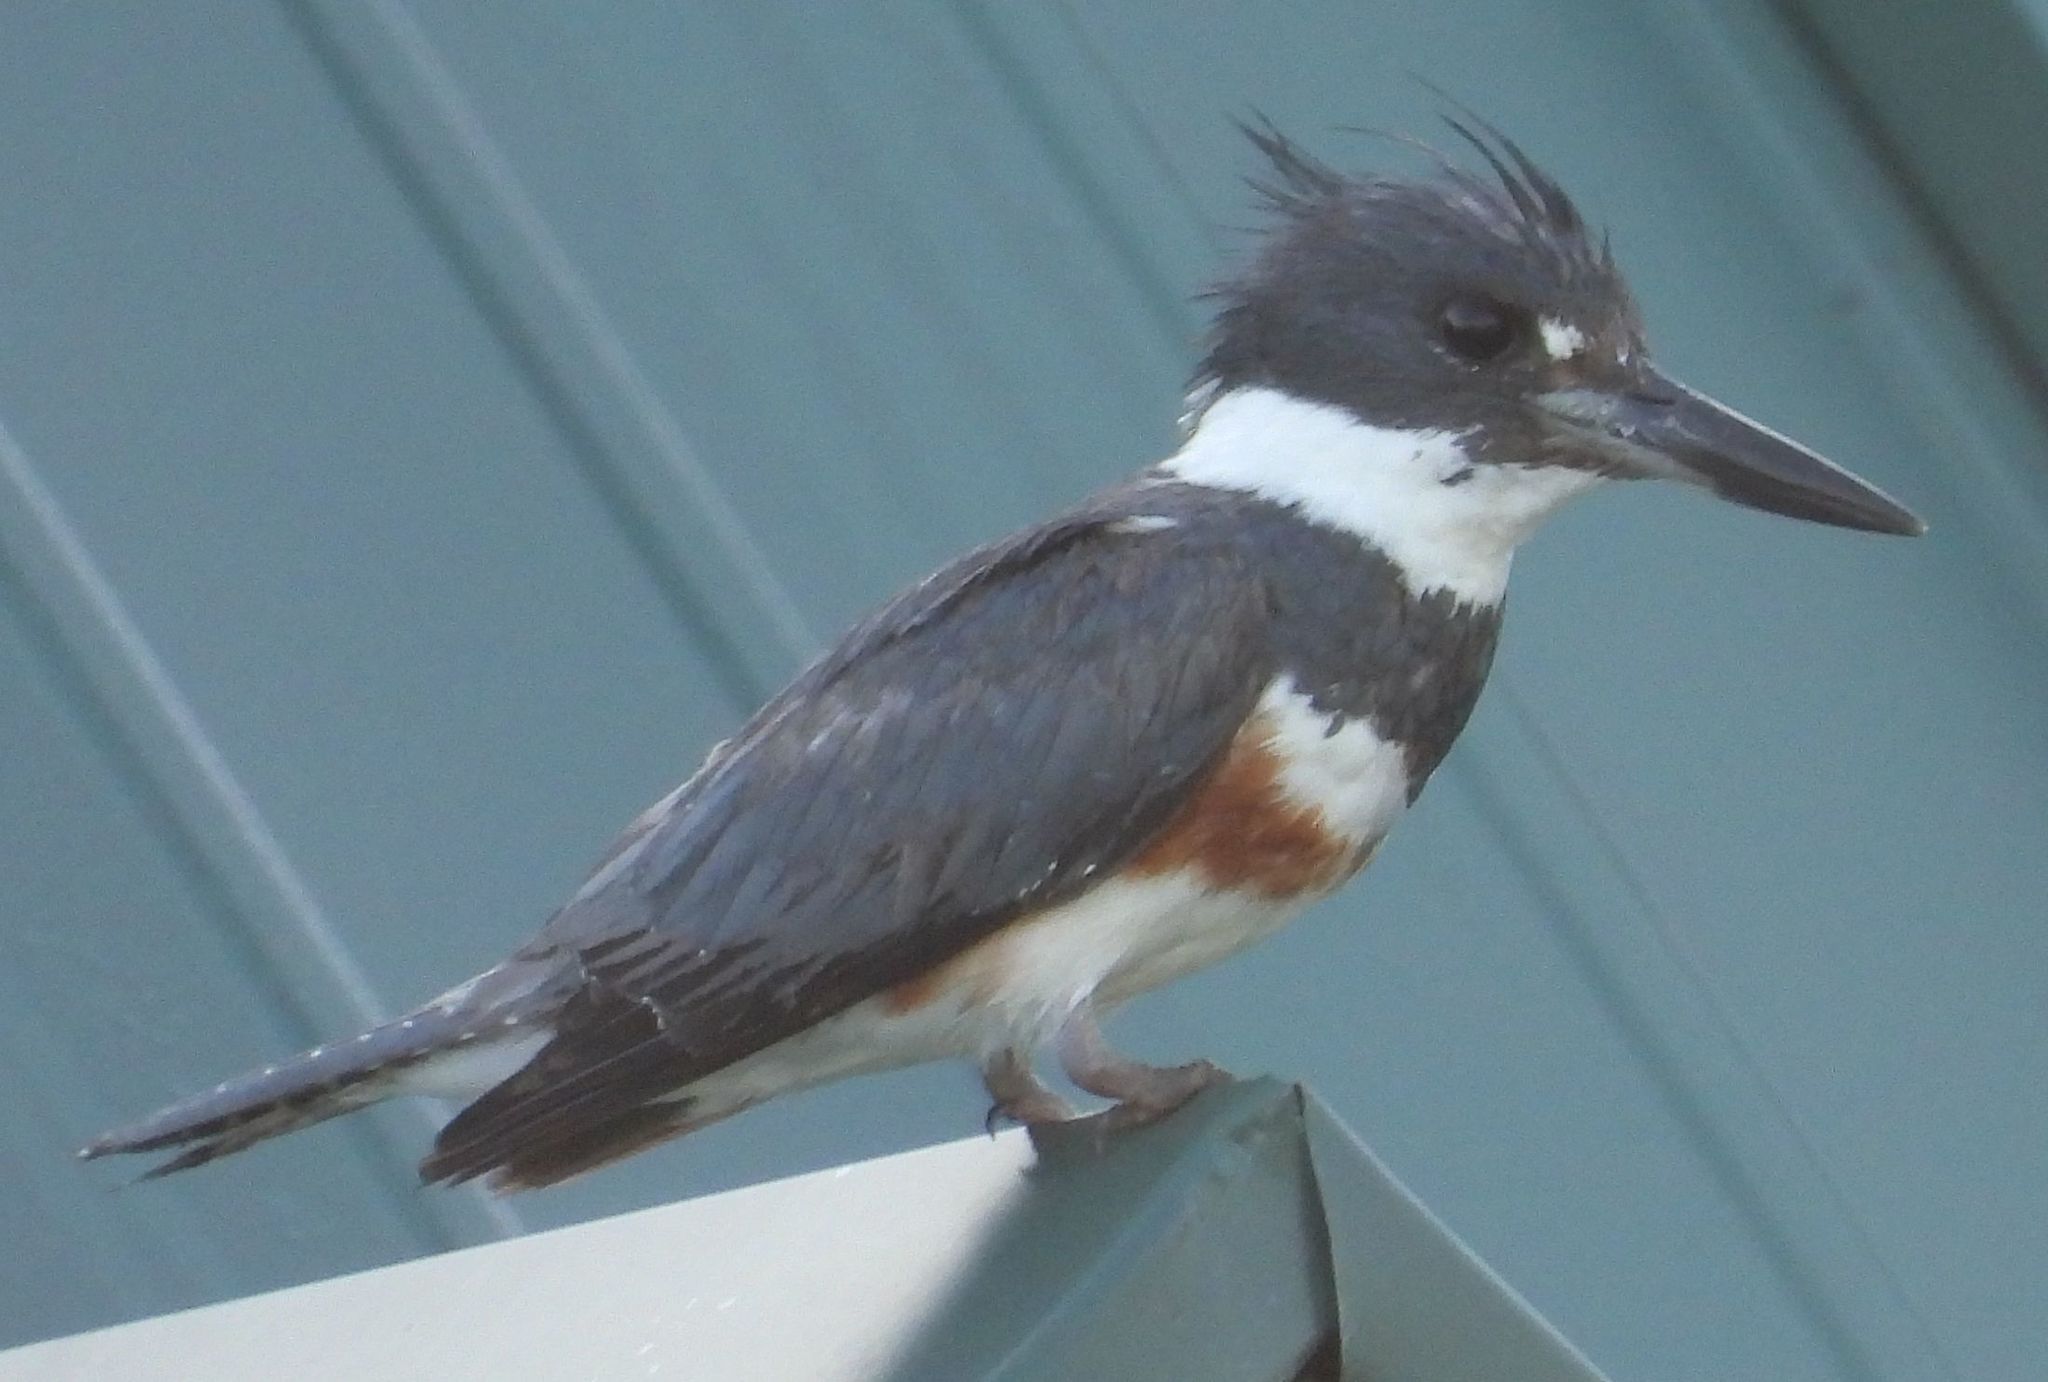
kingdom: Animalia
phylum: Chordata
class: Aves
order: Coraciiformes
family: Alcedinidae
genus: Megaceryle
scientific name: Megaceryle alcyon
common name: Belted kingfisher
